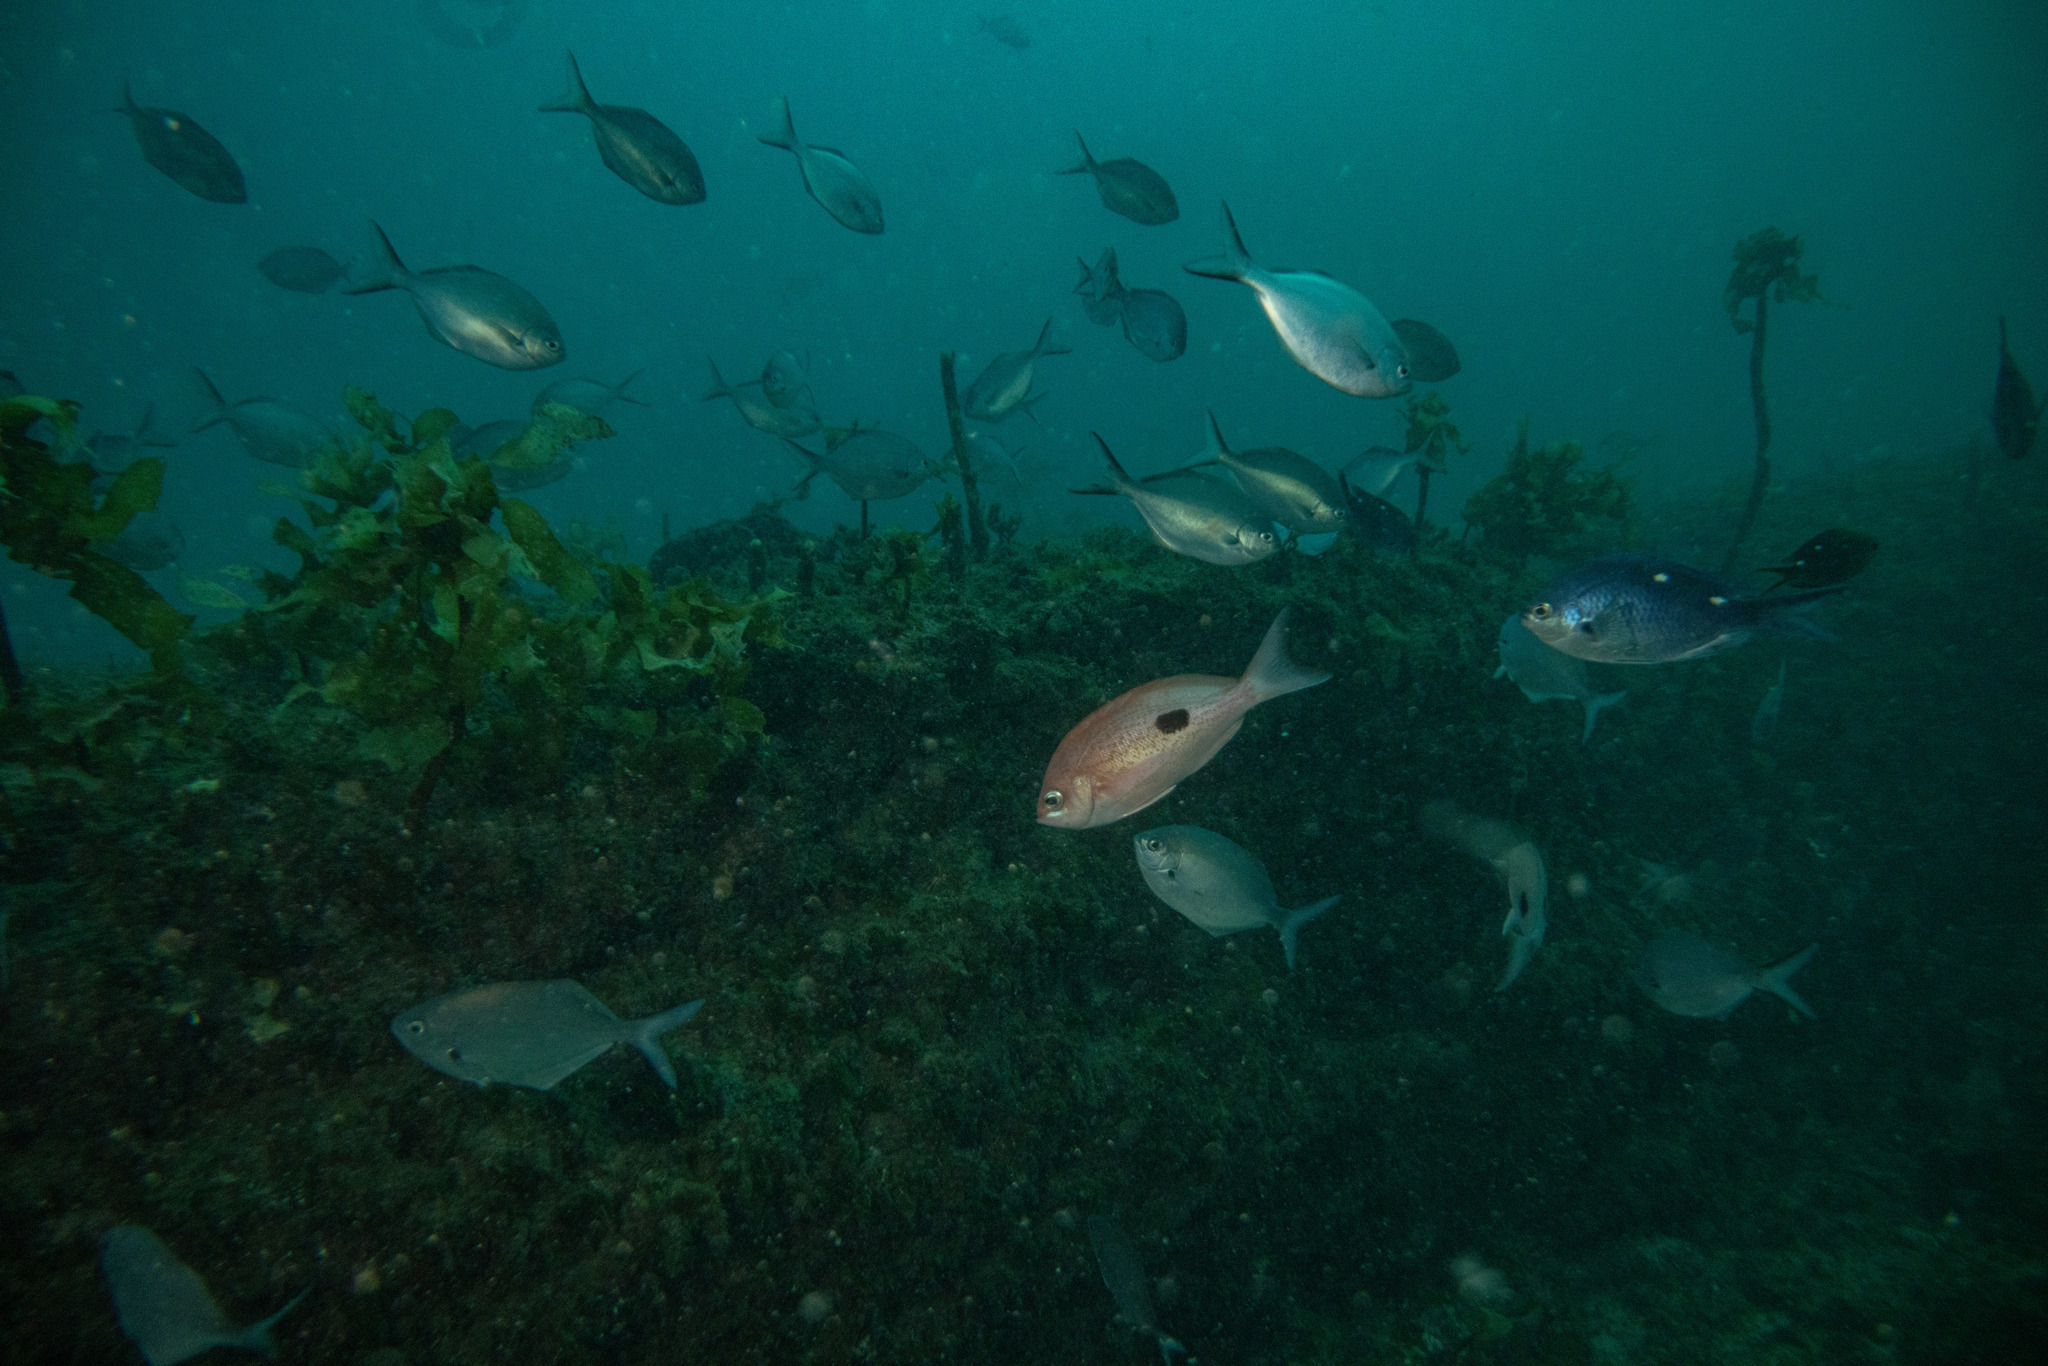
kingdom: Animalia
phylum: Chordata
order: Perciformes
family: Serranidae
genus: Caesioperca
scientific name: Caesioperca lepidoptera
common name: Butterfly perch
